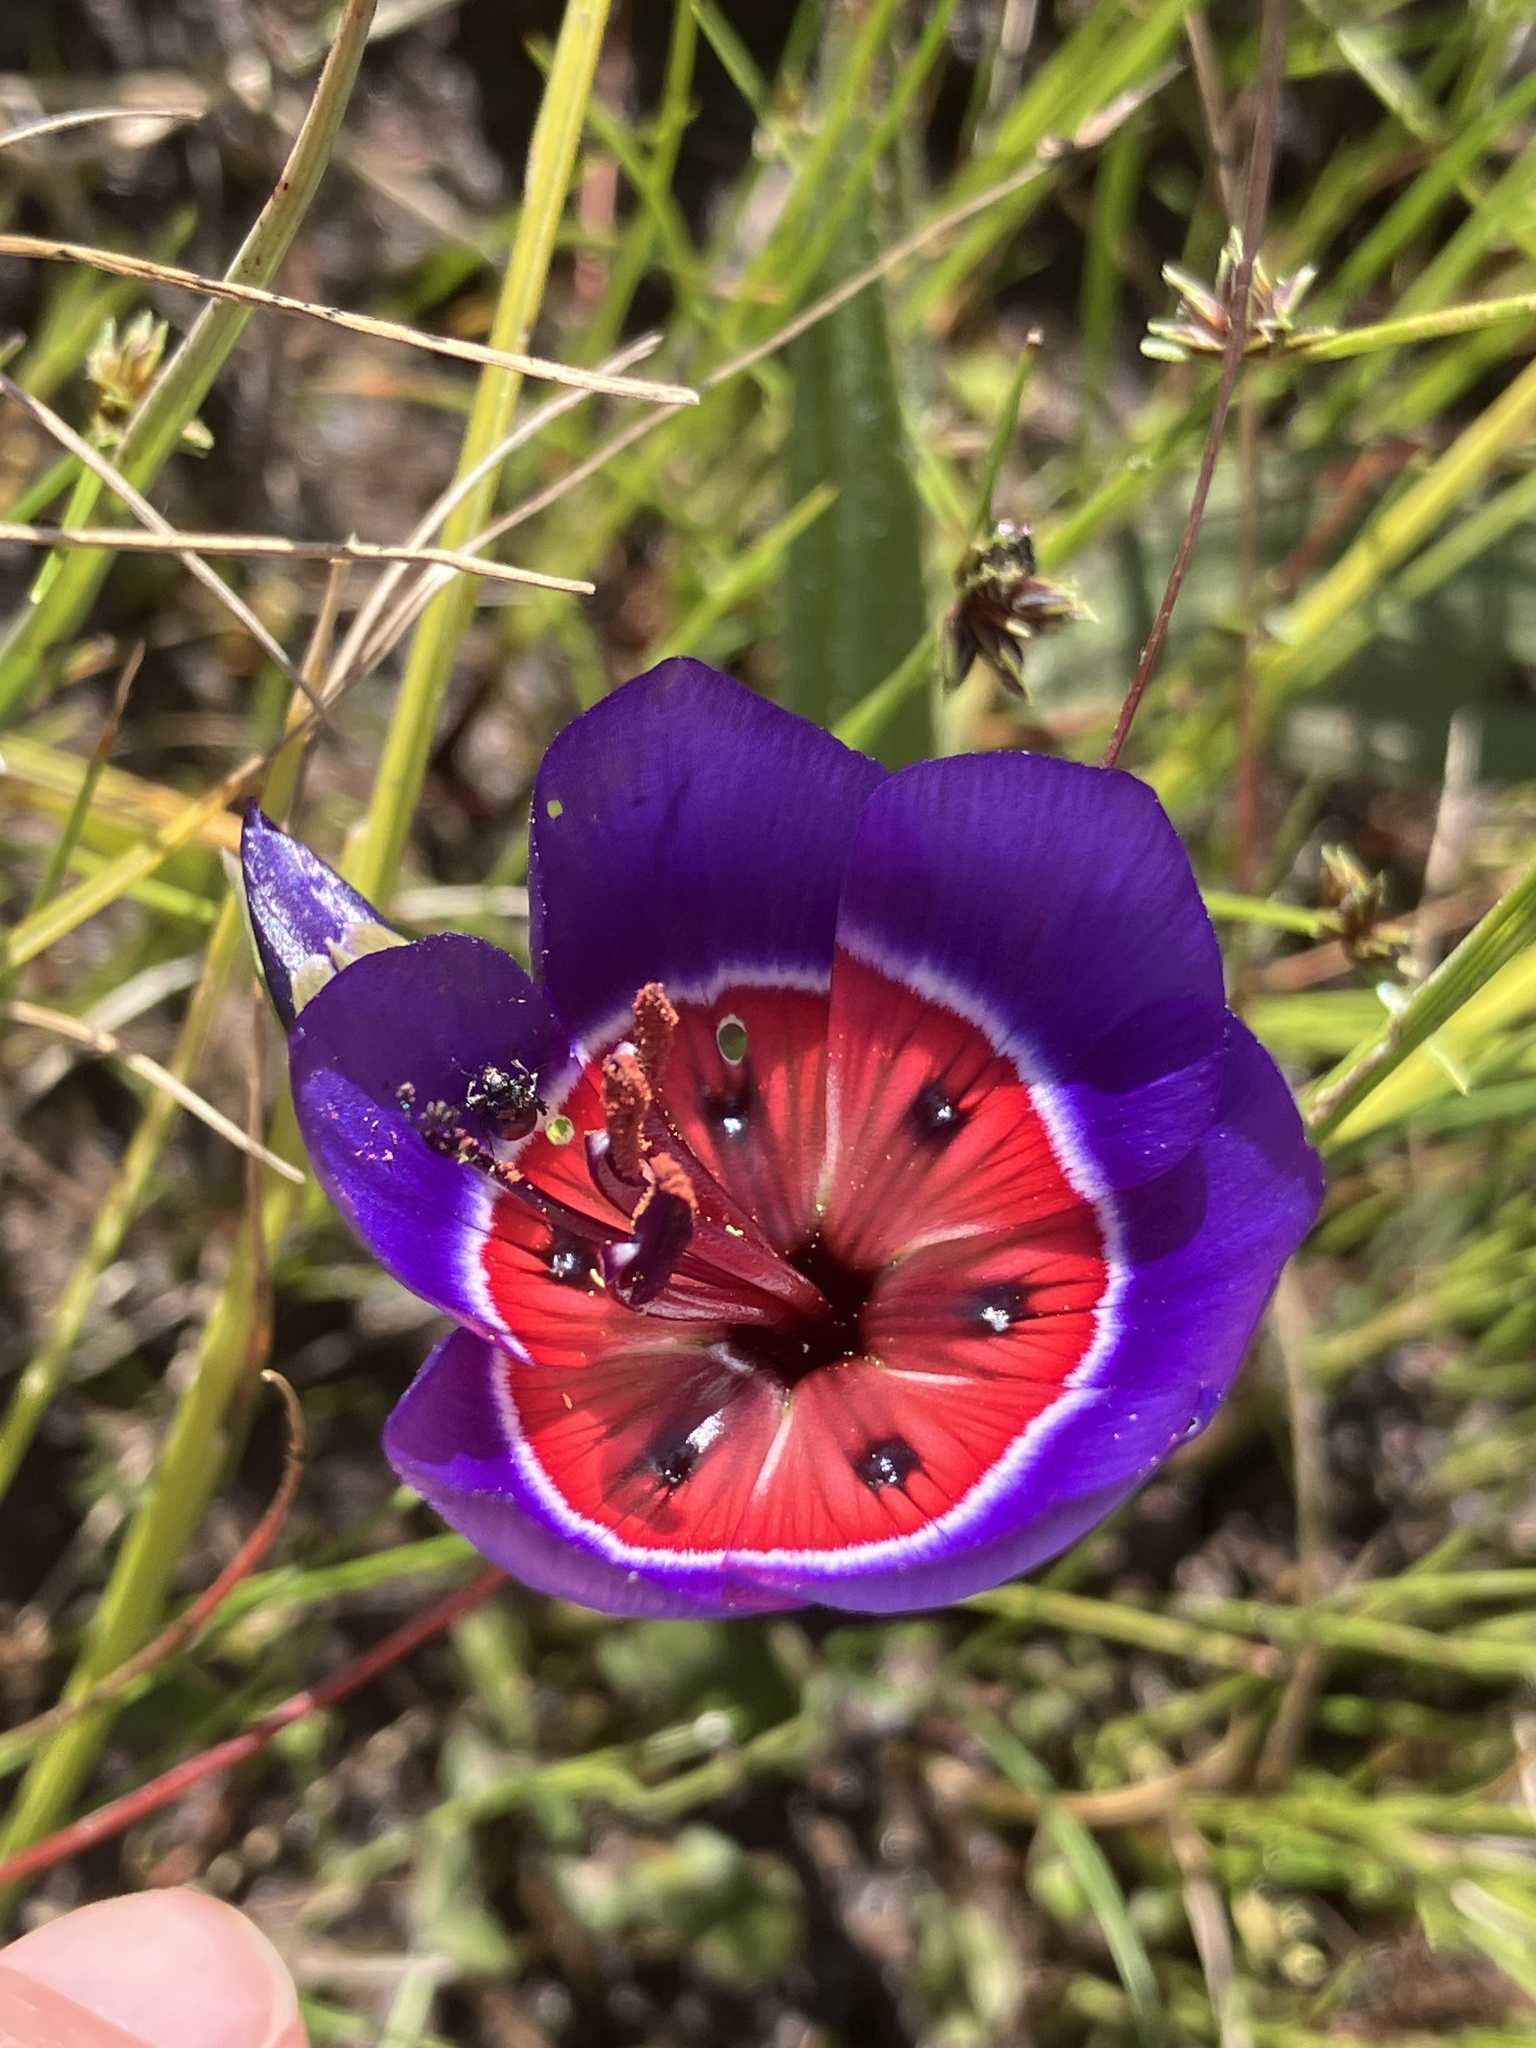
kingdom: Plantae
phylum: Tracheophyta
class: Liliopsida
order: Asparagales
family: Iridaceae
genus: Geissorhiza
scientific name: Geissorhiza radians
